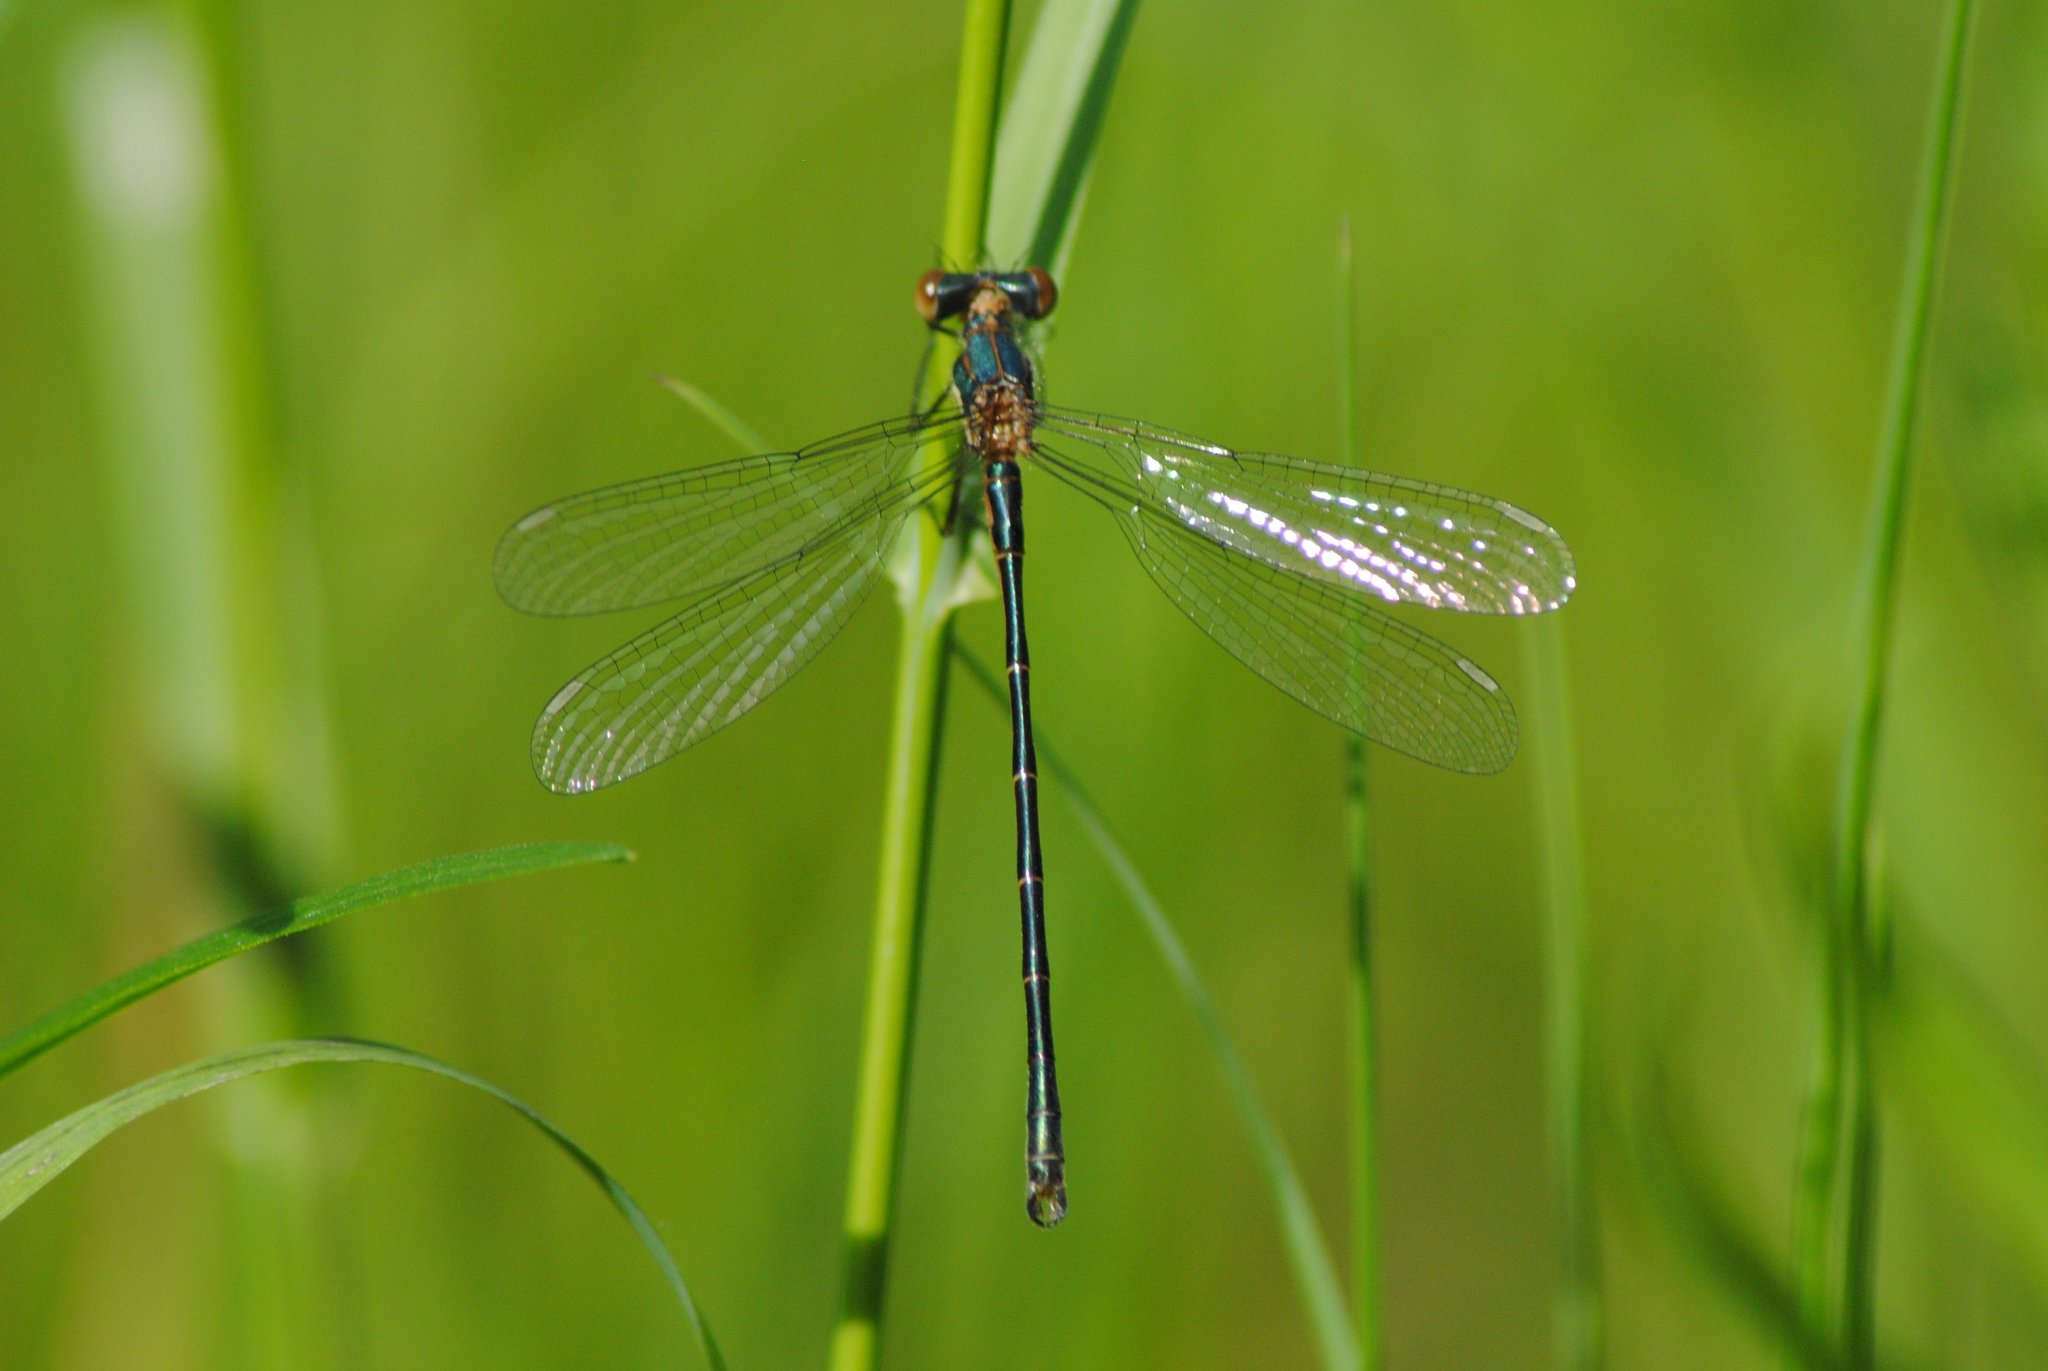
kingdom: Animalia
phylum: Arthropoda
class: Insecta
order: Odonata
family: Lestidae
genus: Lestes
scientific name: Lestes dryas
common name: Scarce emerald damselfly
